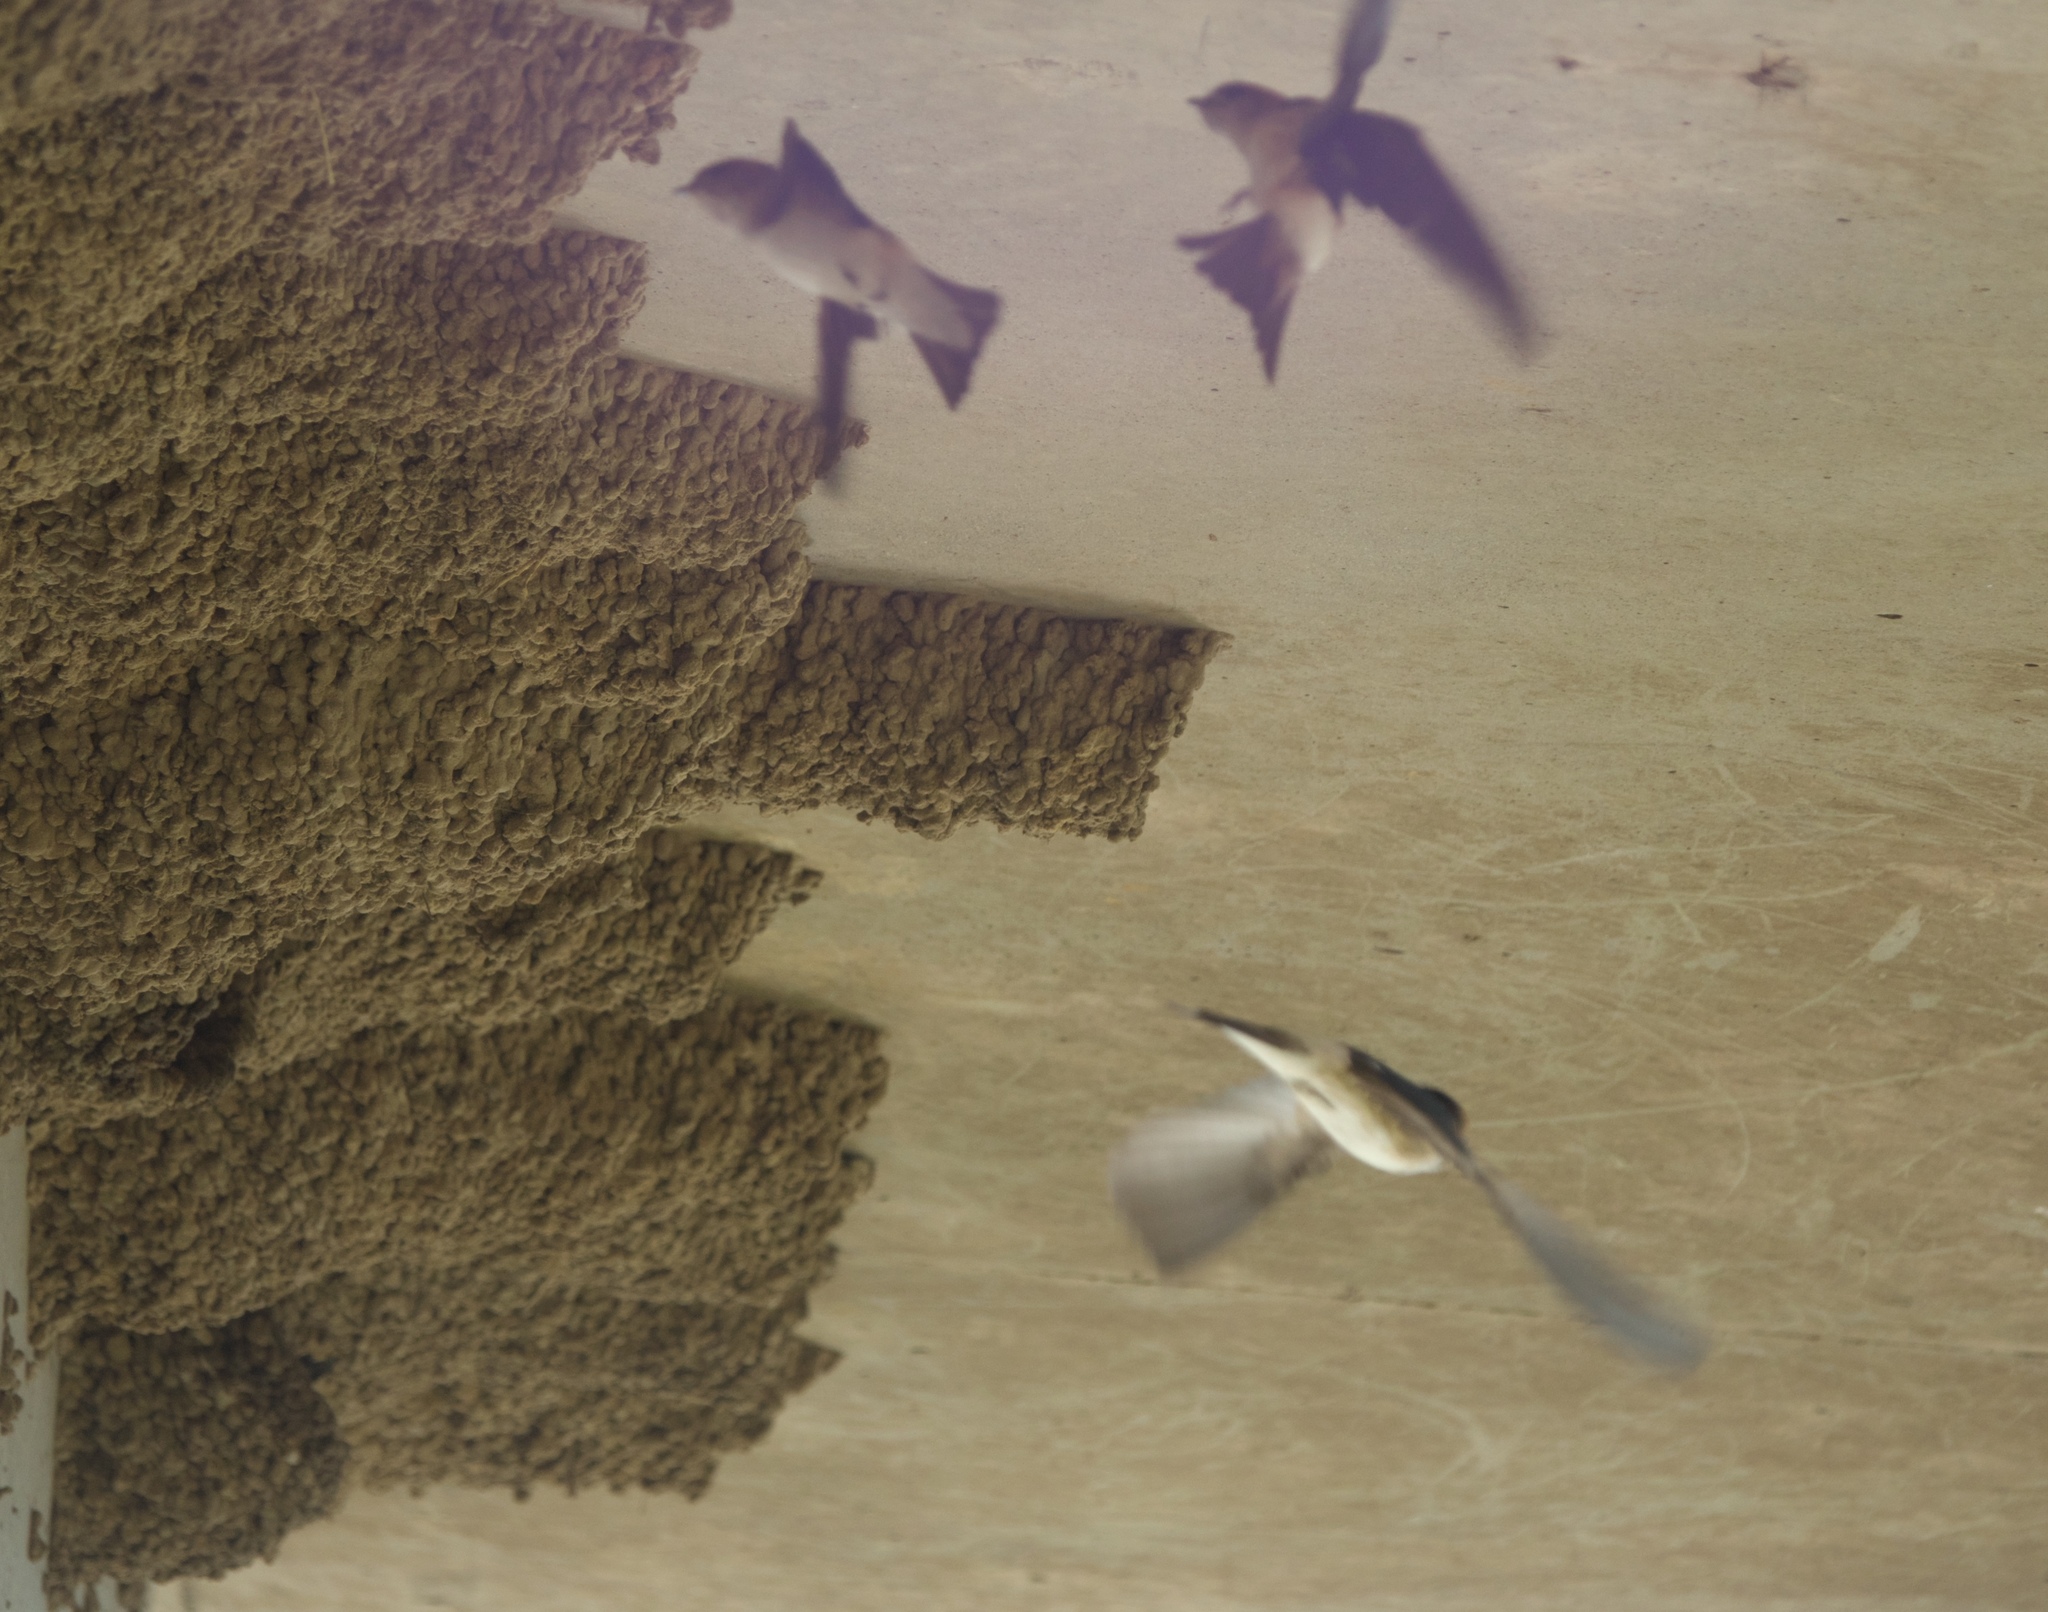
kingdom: Animalia
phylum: Chordata
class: Aves
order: Passeriformes
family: Hirundinidae
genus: Petrochelidon
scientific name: Petrochelidon ariel
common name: Fairy martin
